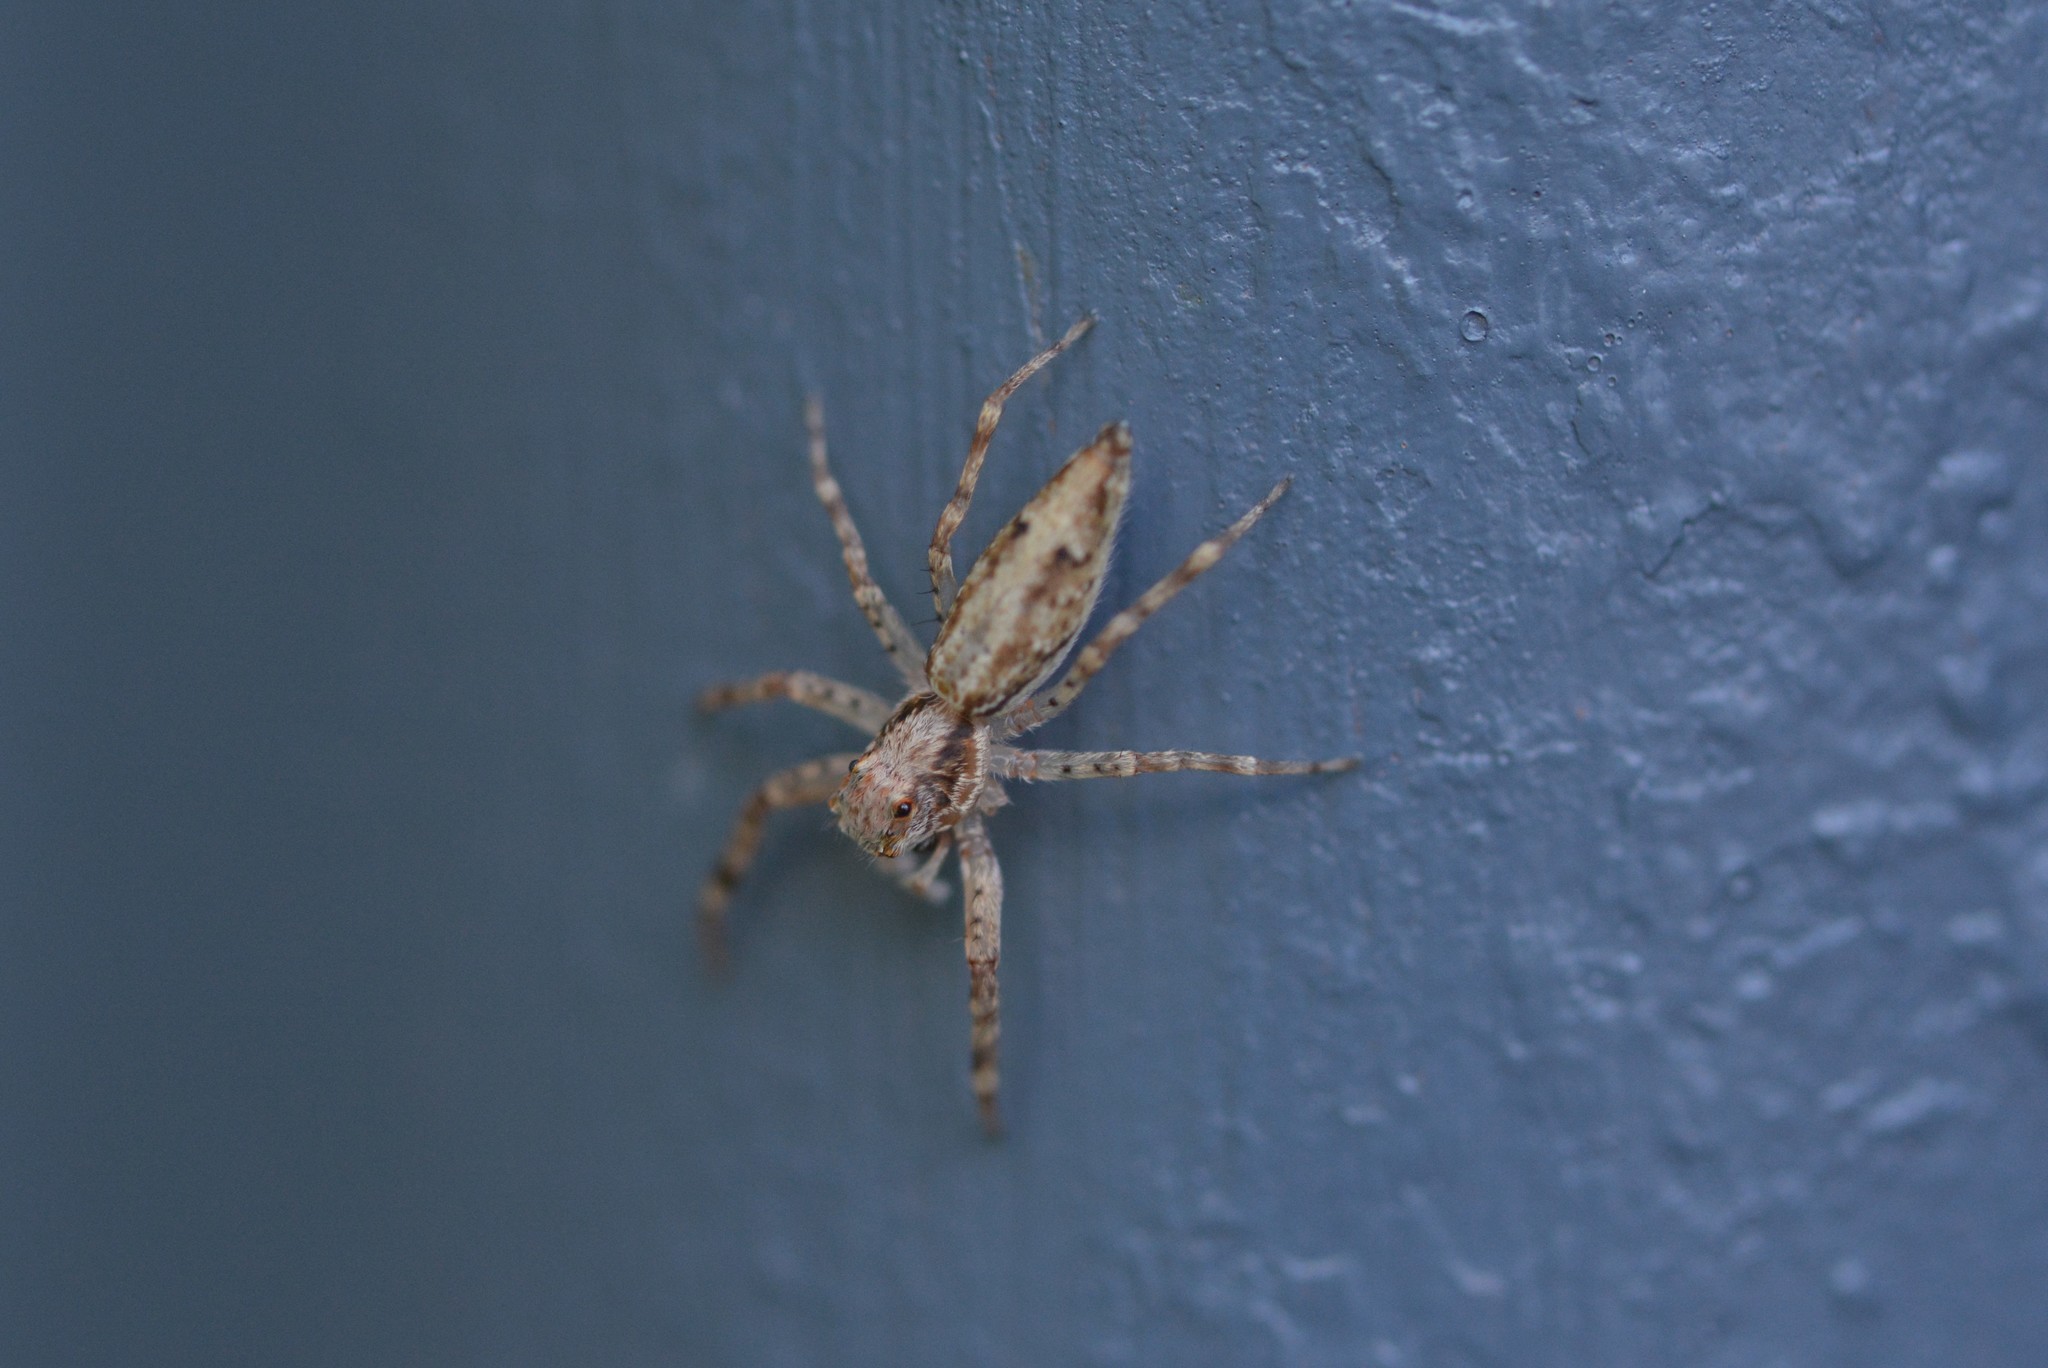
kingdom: Animalia
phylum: Arthropoda
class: Arachnida
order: Araneae
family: Salticidae
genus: Helpis
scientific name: Helpis minitabunda
